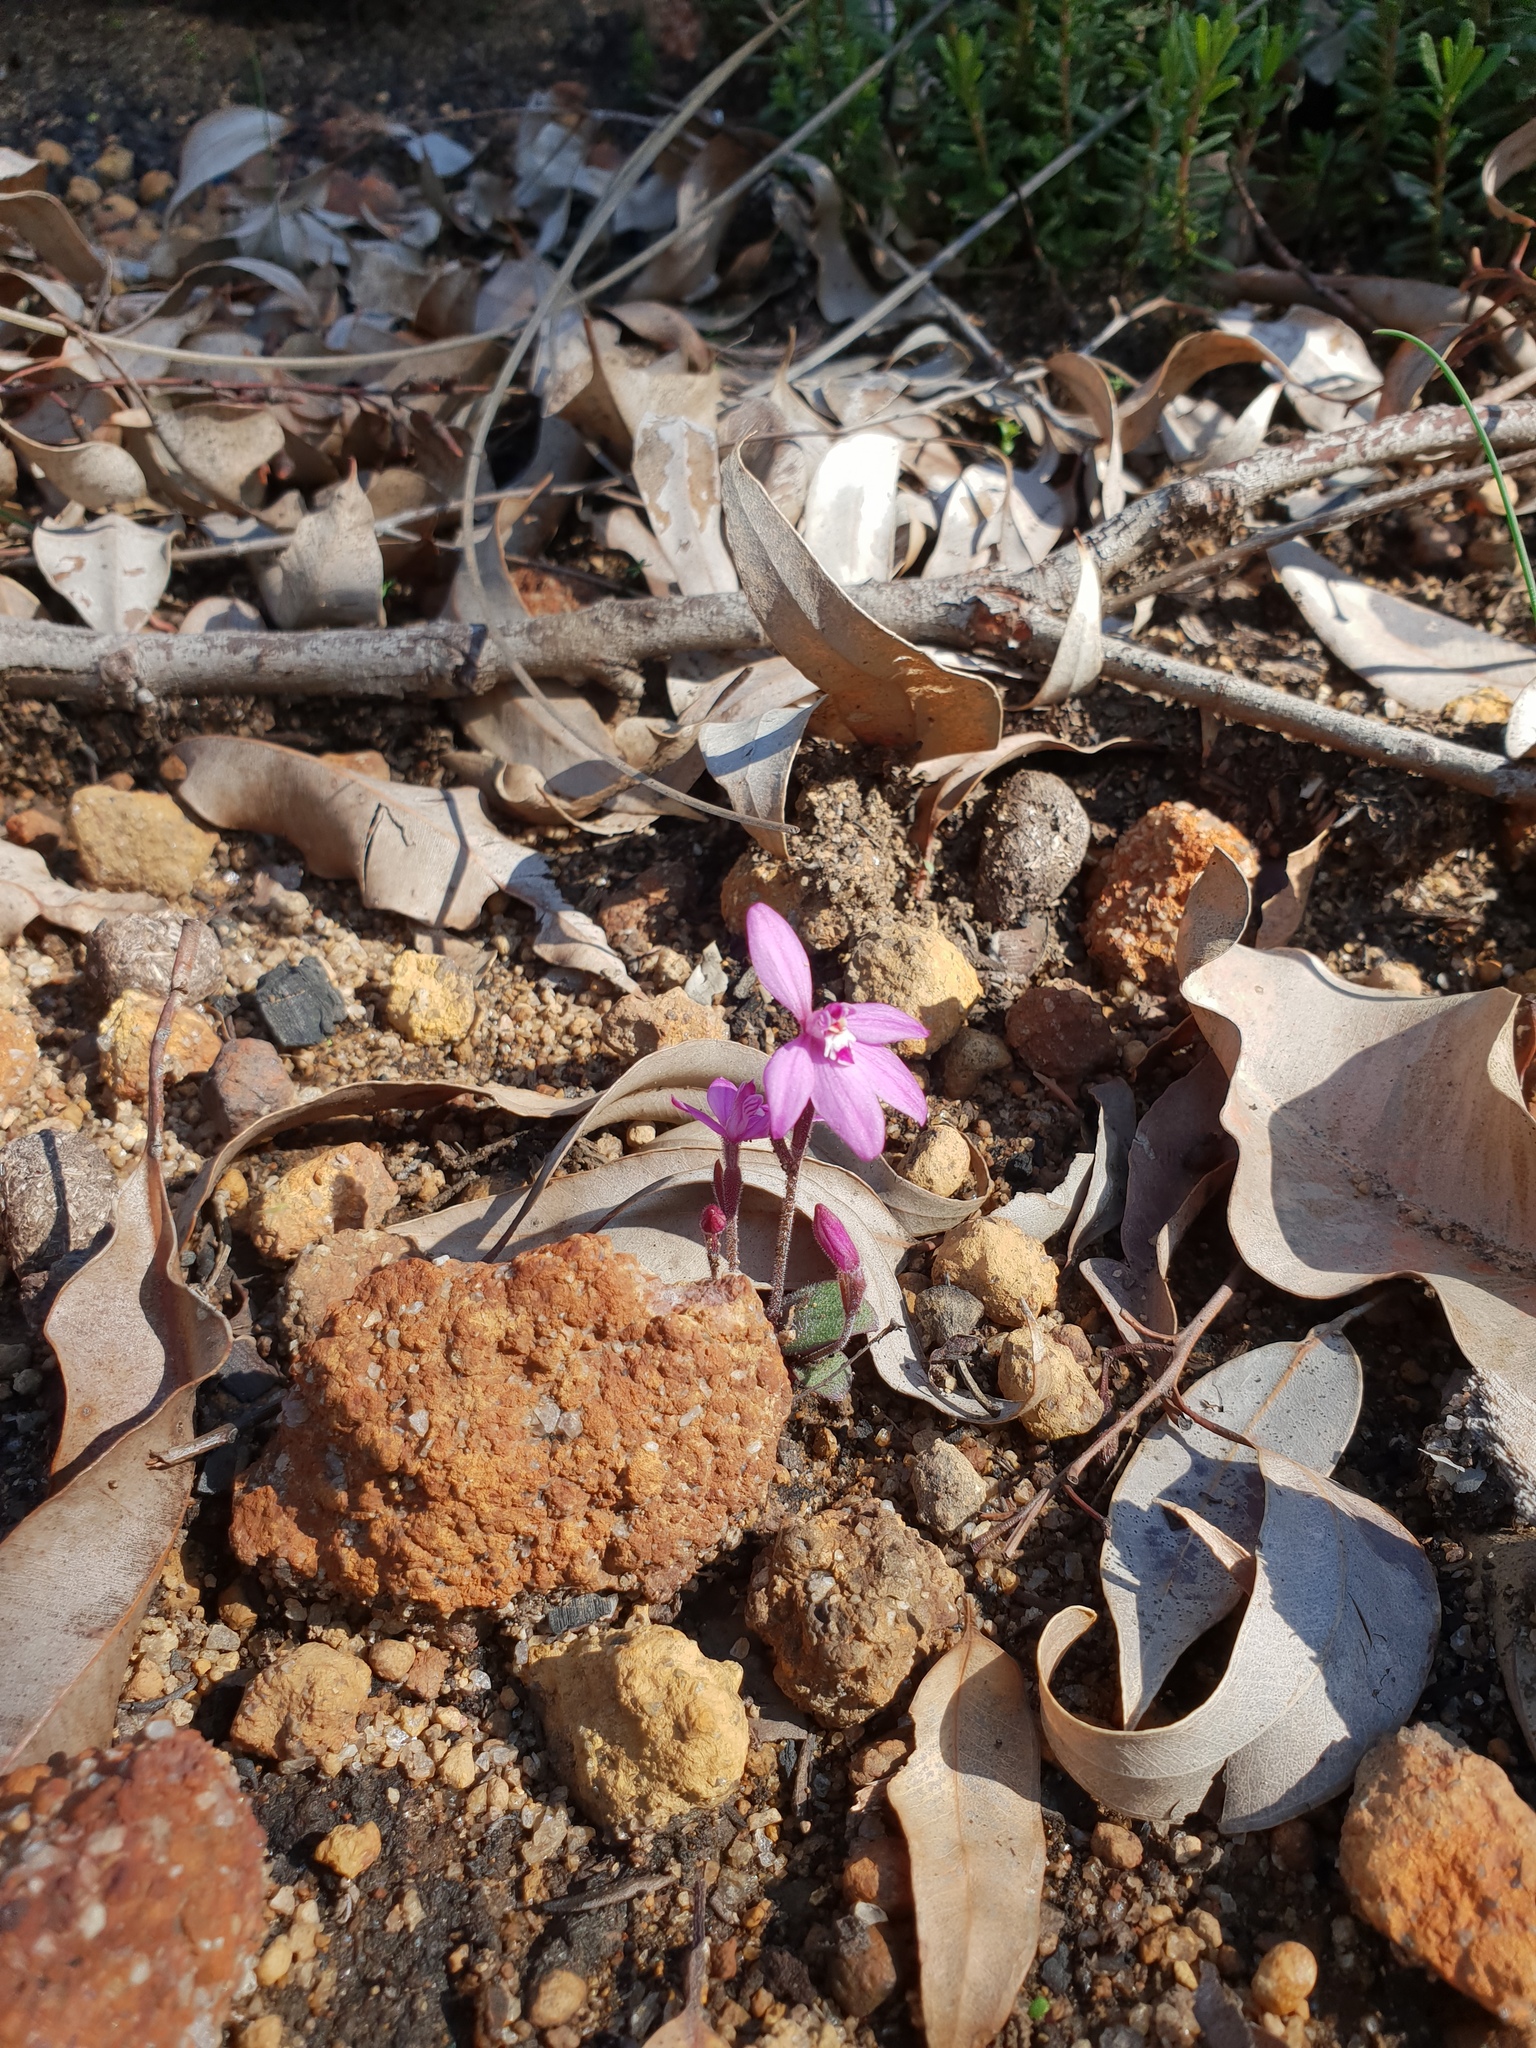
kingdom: Plantae
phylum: Tracheophyta
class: Liliopsida
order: Asparagales
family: Orchidaceae
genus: Caladenia
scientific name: Caladenia reptans
